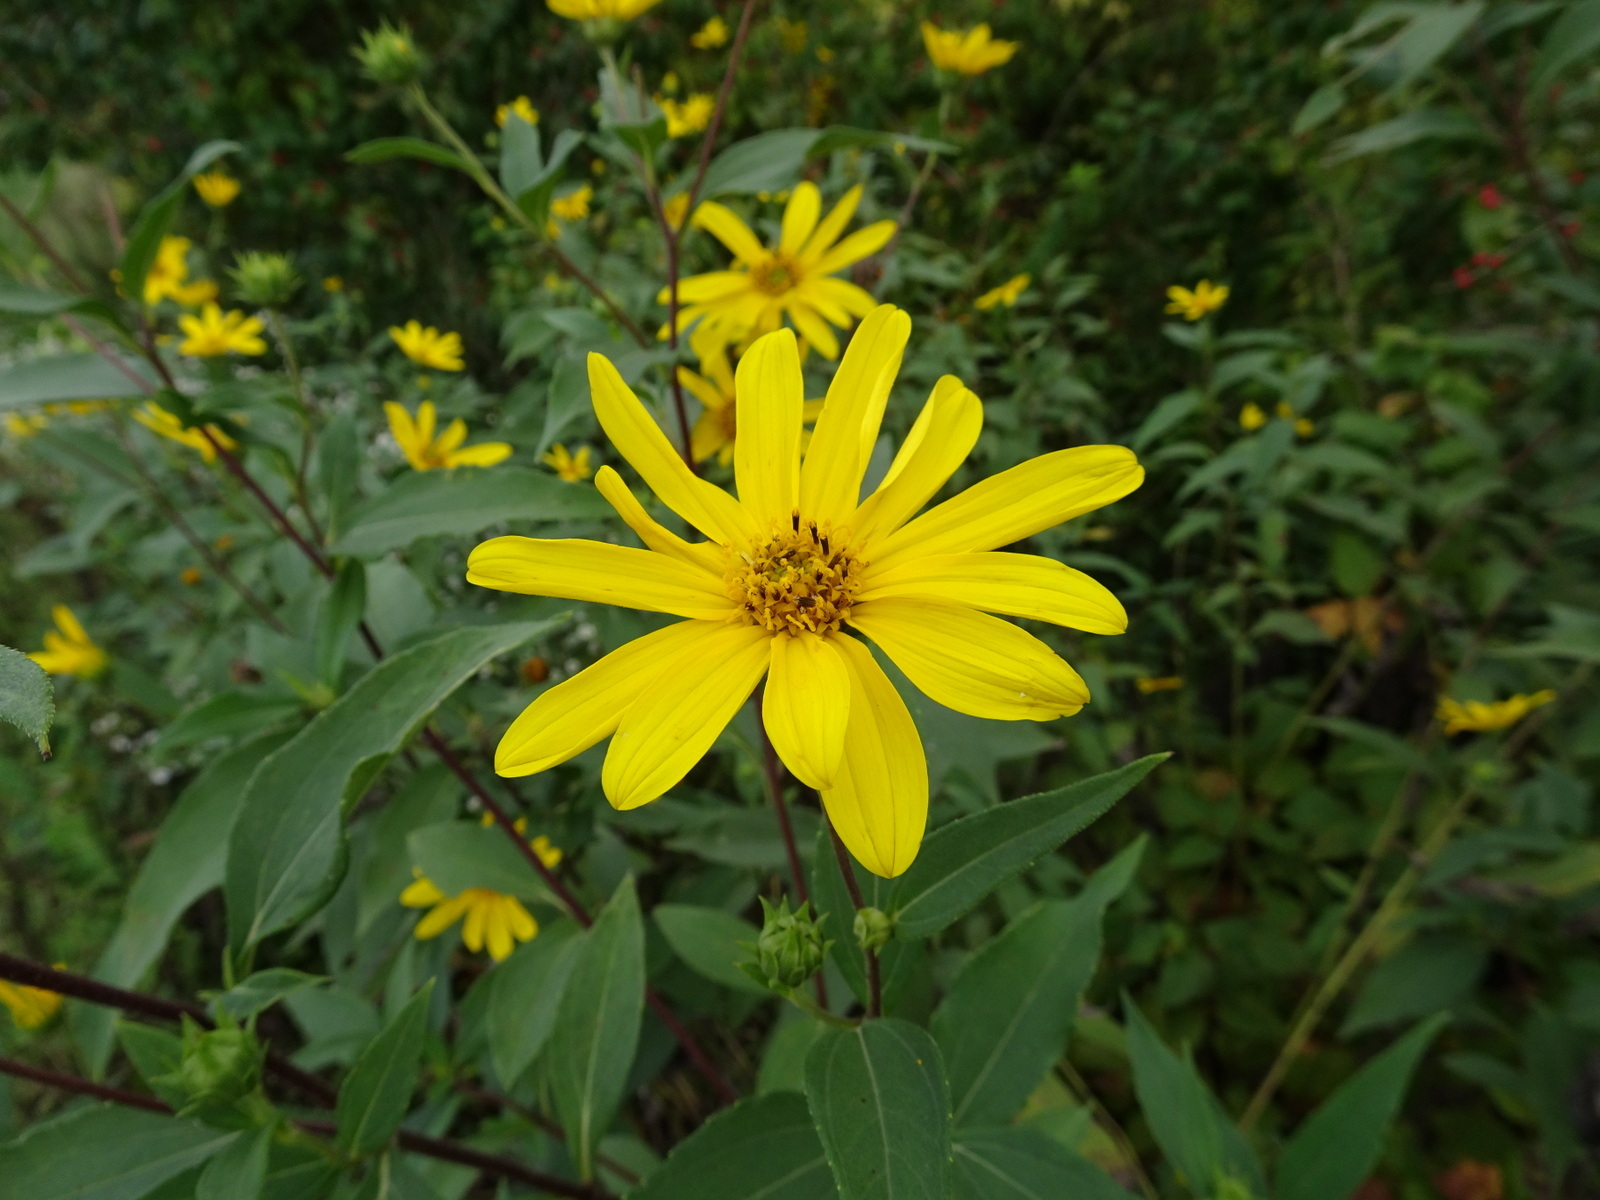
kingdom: Plantae
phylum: Tracheophyta
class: Magnoliopsida
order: Asterales
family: Asteraceae
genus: Helianthus
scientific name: Helianthus tuberosus
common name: Jerusalem artichoke
